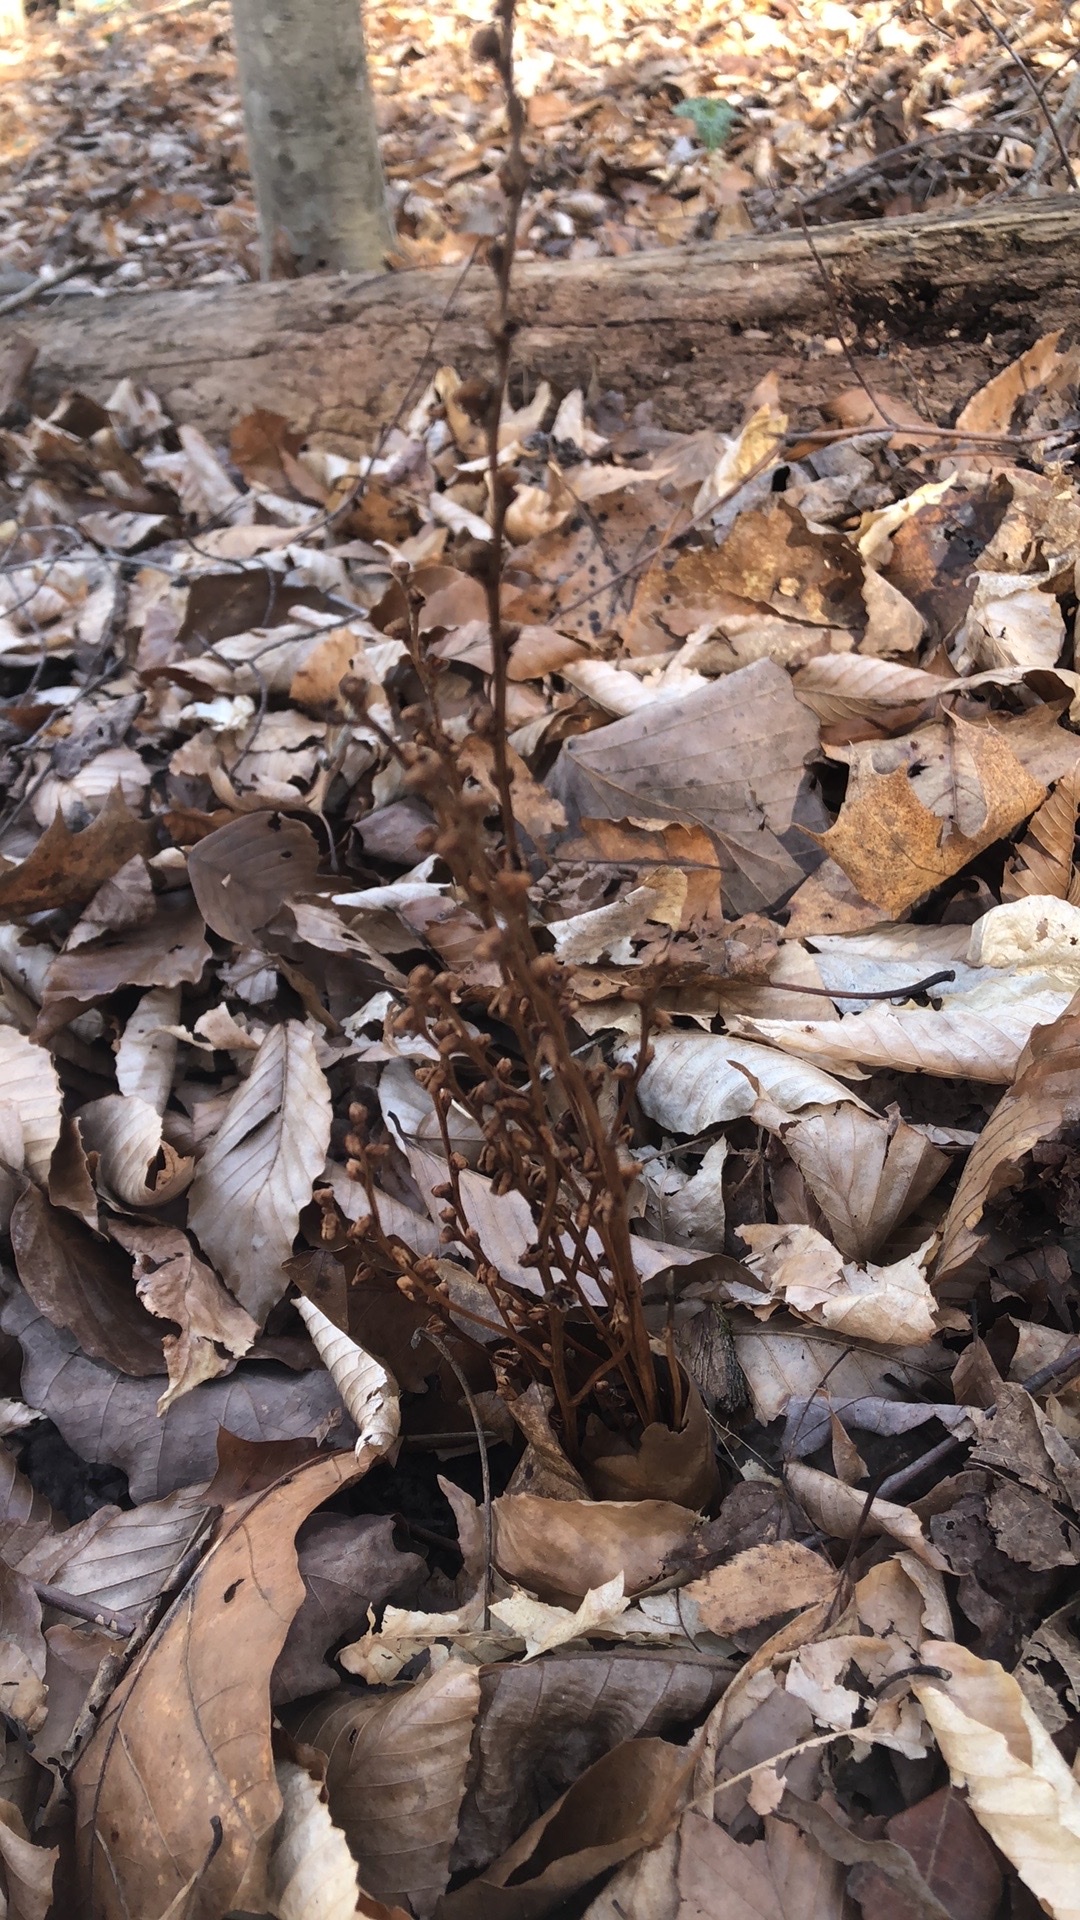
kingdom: Plantae
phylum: Tracheophyta
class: Magnoliopsida
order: Lamiales
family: Orobanchaceae
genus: Epifagus
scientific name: Epifagus virginiana
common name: Beechdrops
